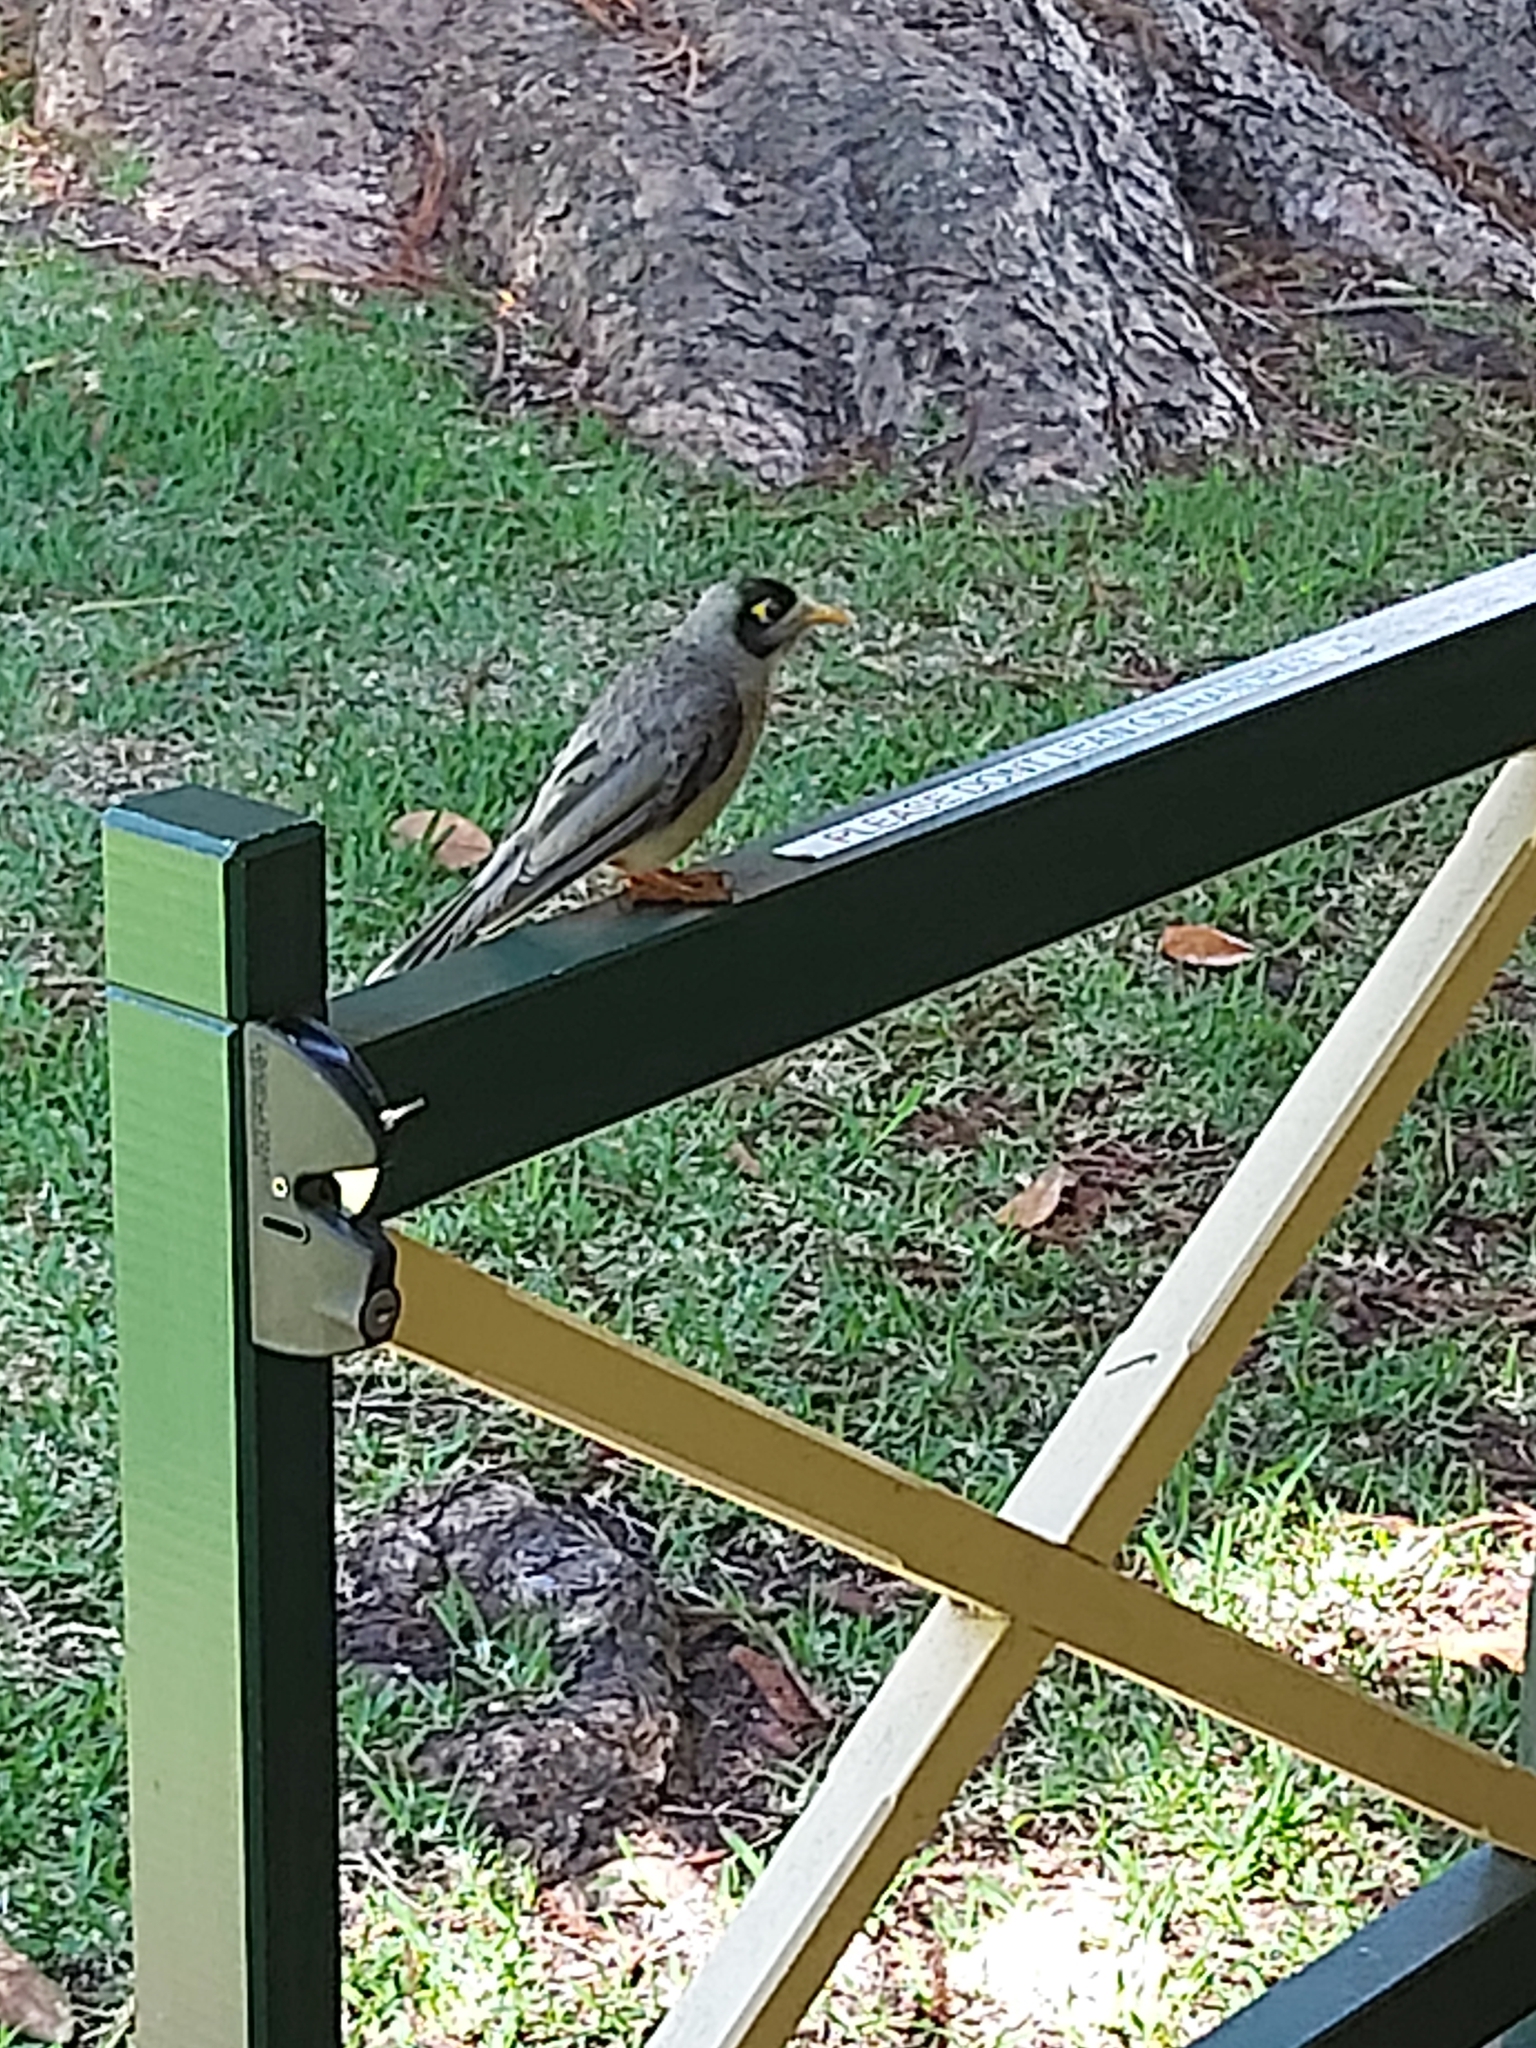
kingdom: Animalia
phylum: Chordata
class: Aves
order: Passeriformes
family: Meliphagidae
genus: Manorina
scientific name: Manorina melanocephala
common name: Noisy miner
